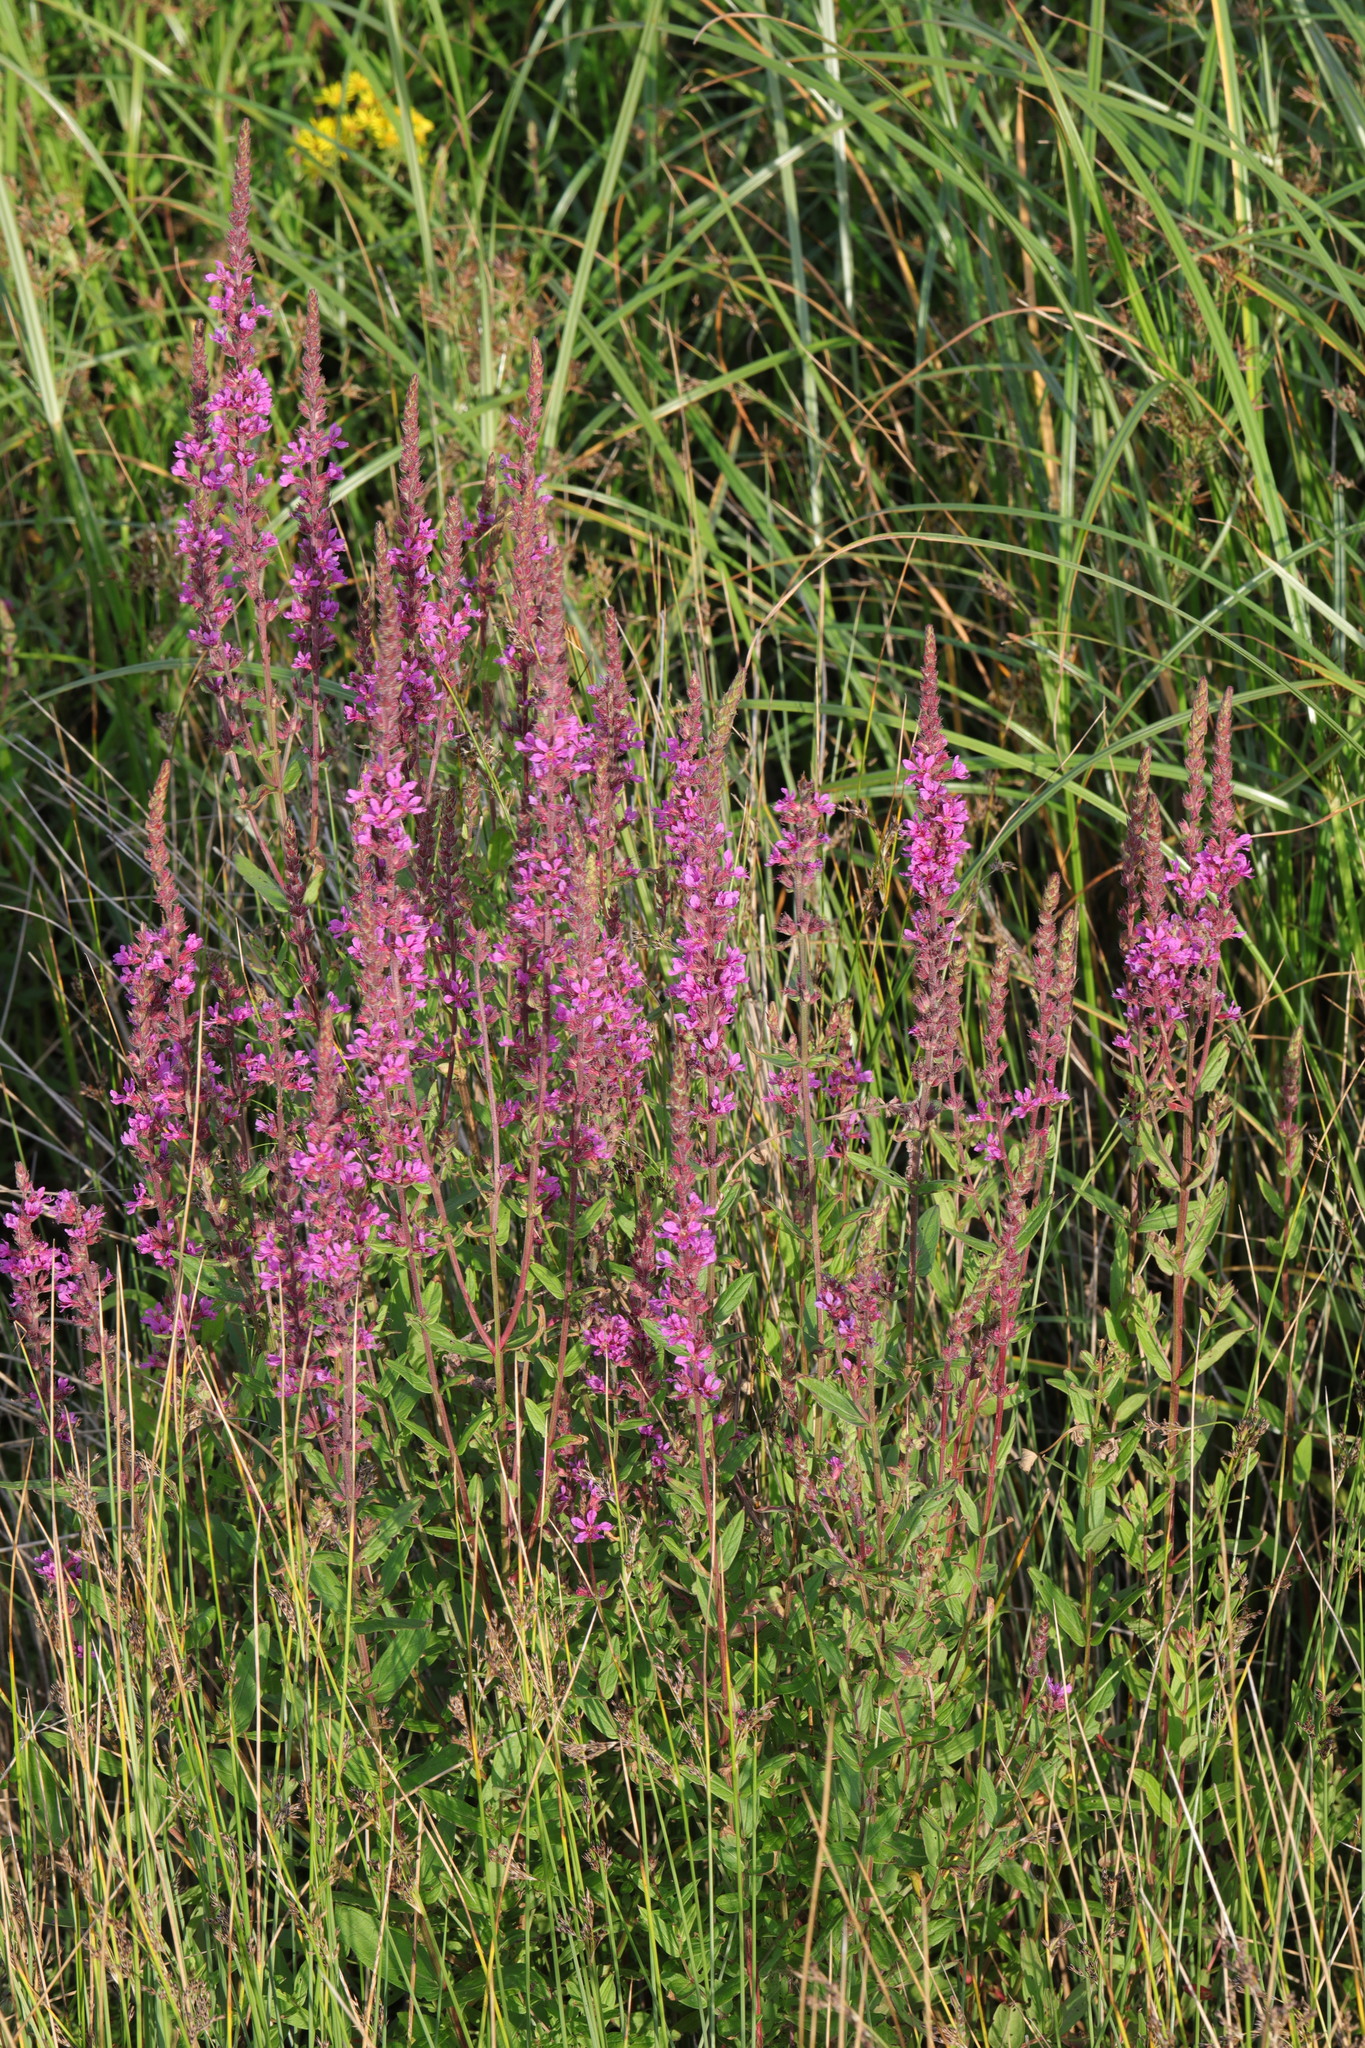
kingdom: Plantae
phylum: Tracheophyta
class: Magnoliopsida
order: Myrtales
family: Lythraceae
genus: Lythrum
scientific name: Lythrum salicaria
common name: Purple loosestrife
